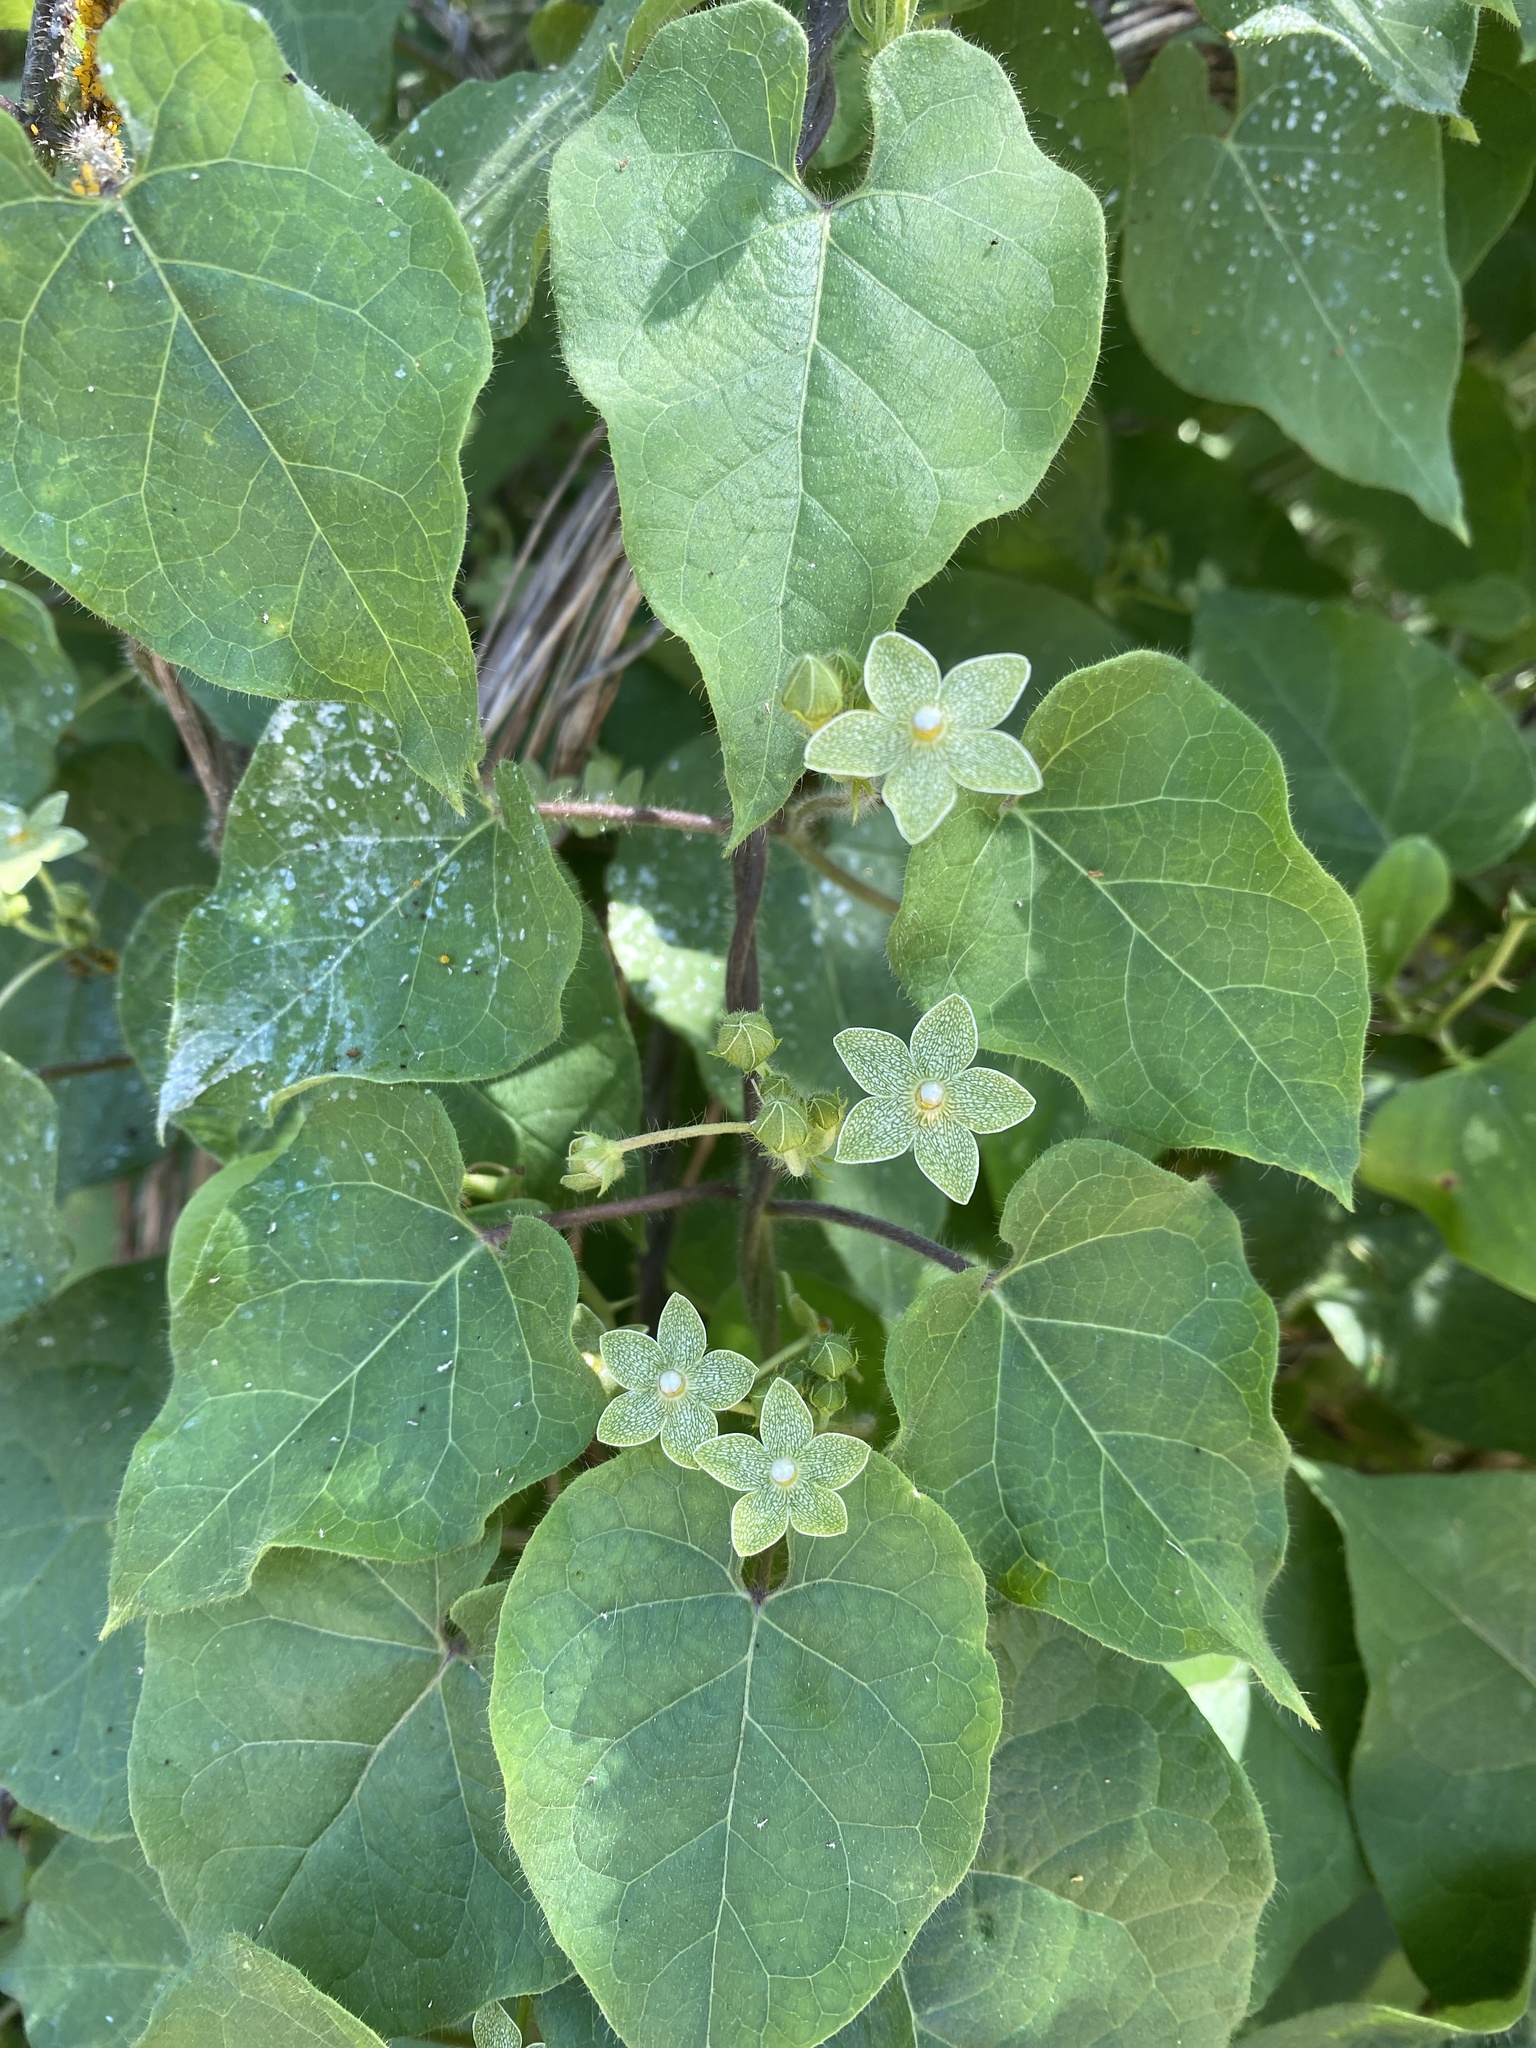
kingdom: Plantae
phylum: Tracheophyta
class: Magnoliopsida
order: Gentianales
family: Apocynaceae
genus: Dictyanthus
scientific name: Dictyanthus reticulatus
